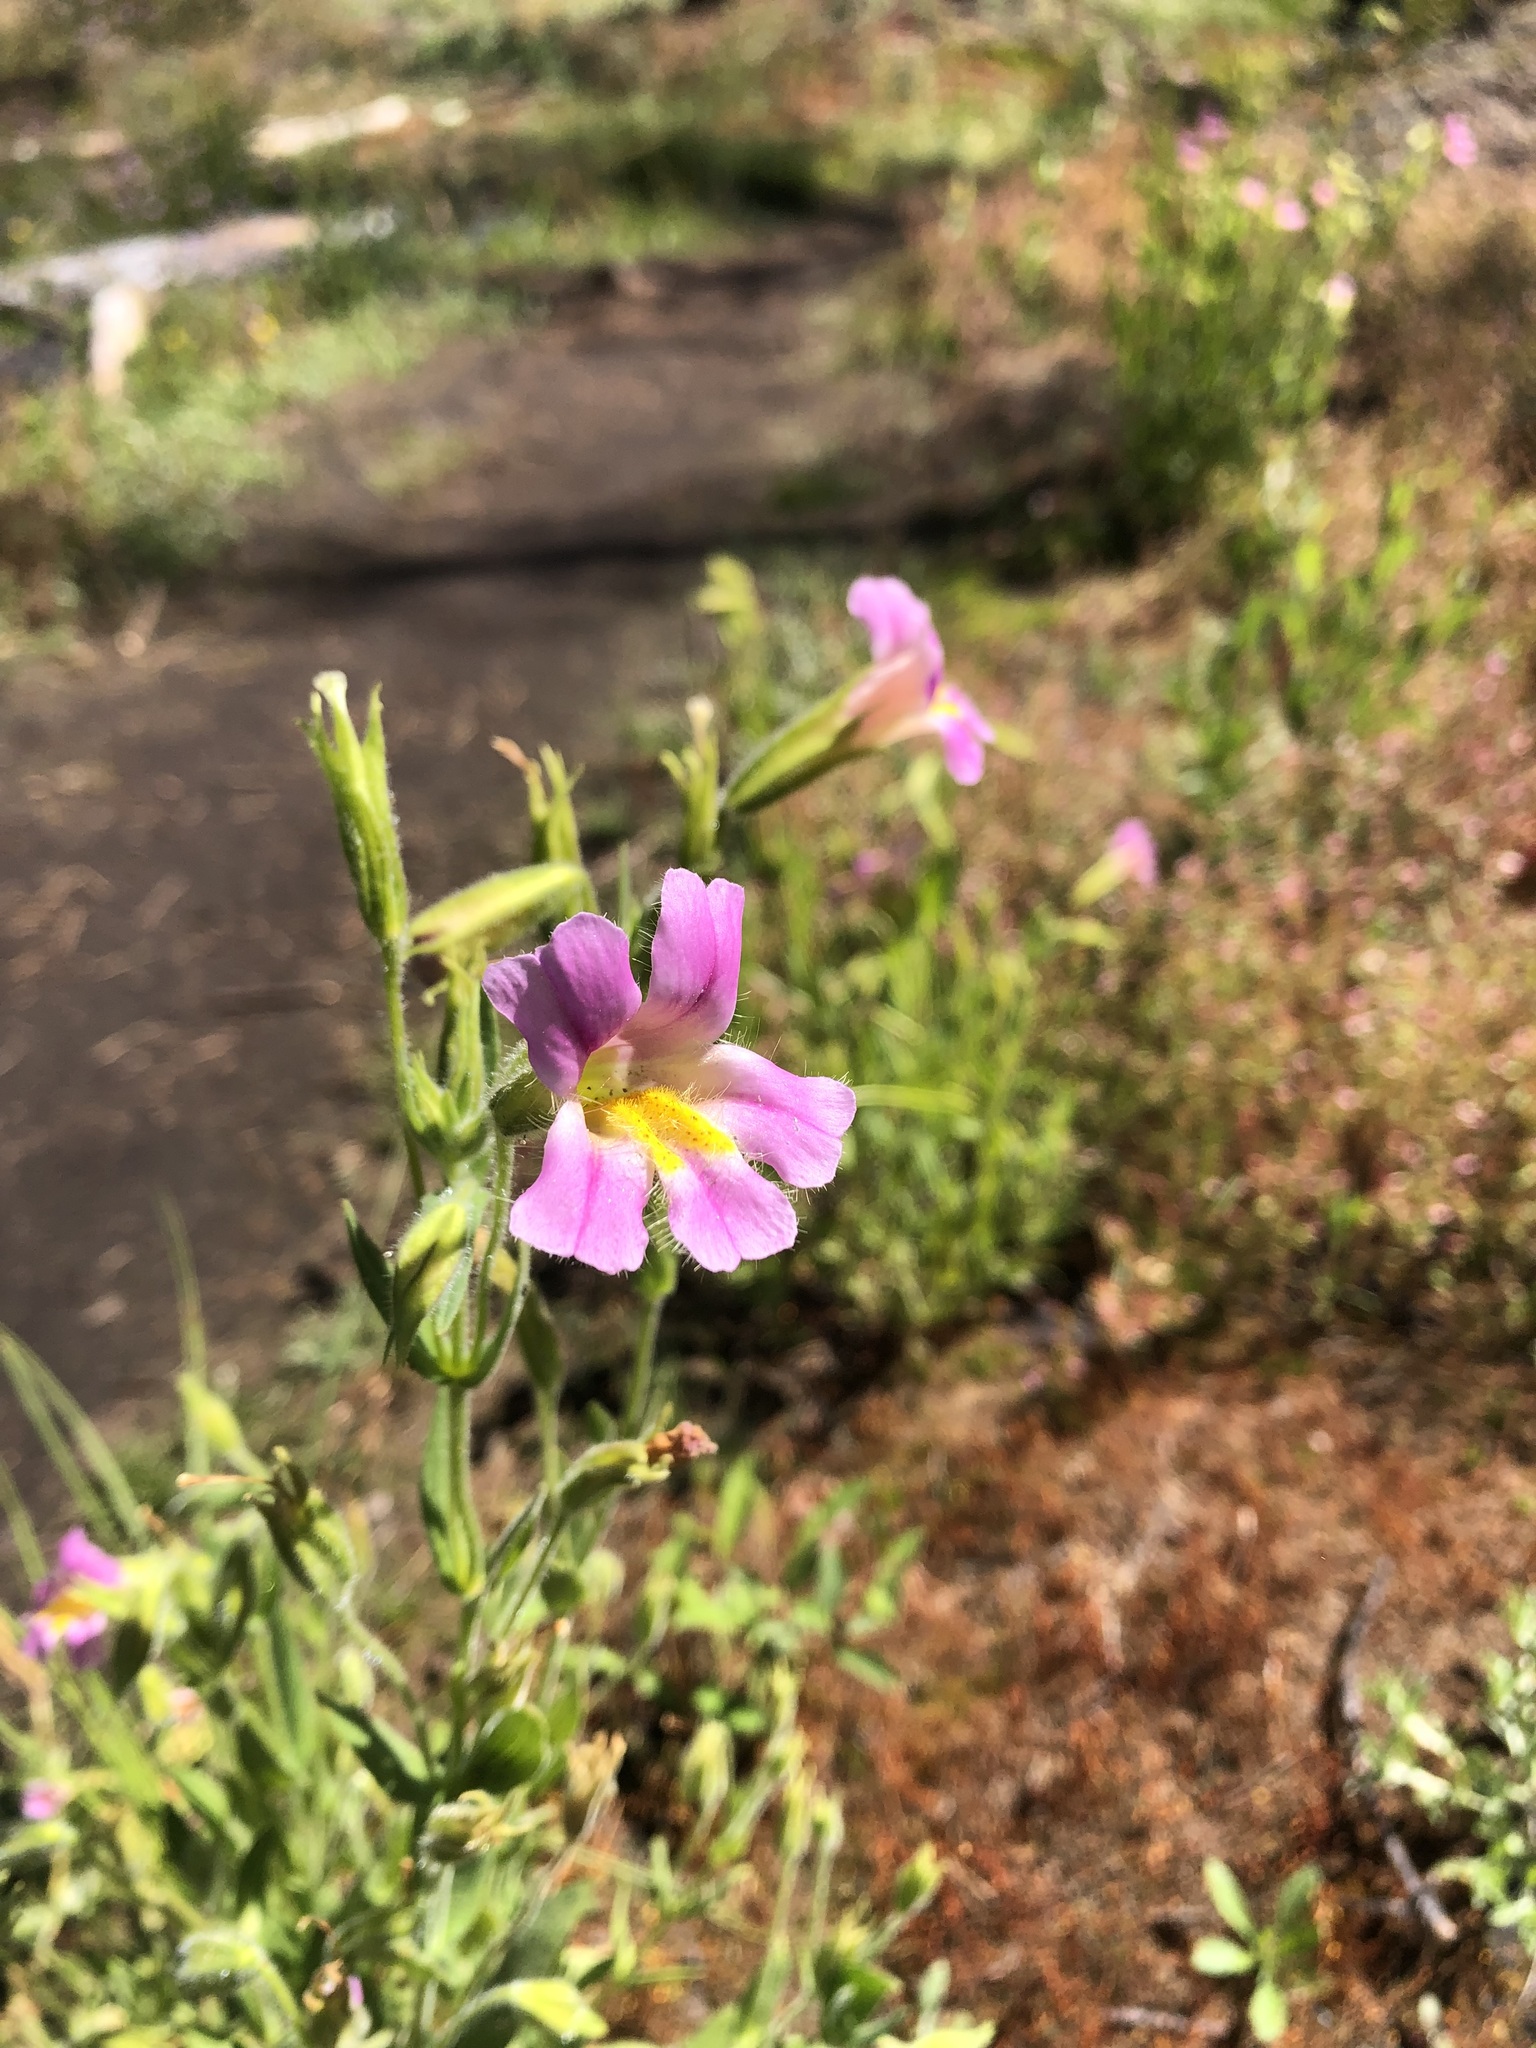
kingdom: Plantae
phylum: Tracheophyta
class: Magnoliopsida
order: Lamiales
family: Phrymaceae
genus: Erythranthe
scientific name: Erythranthe erubescens
